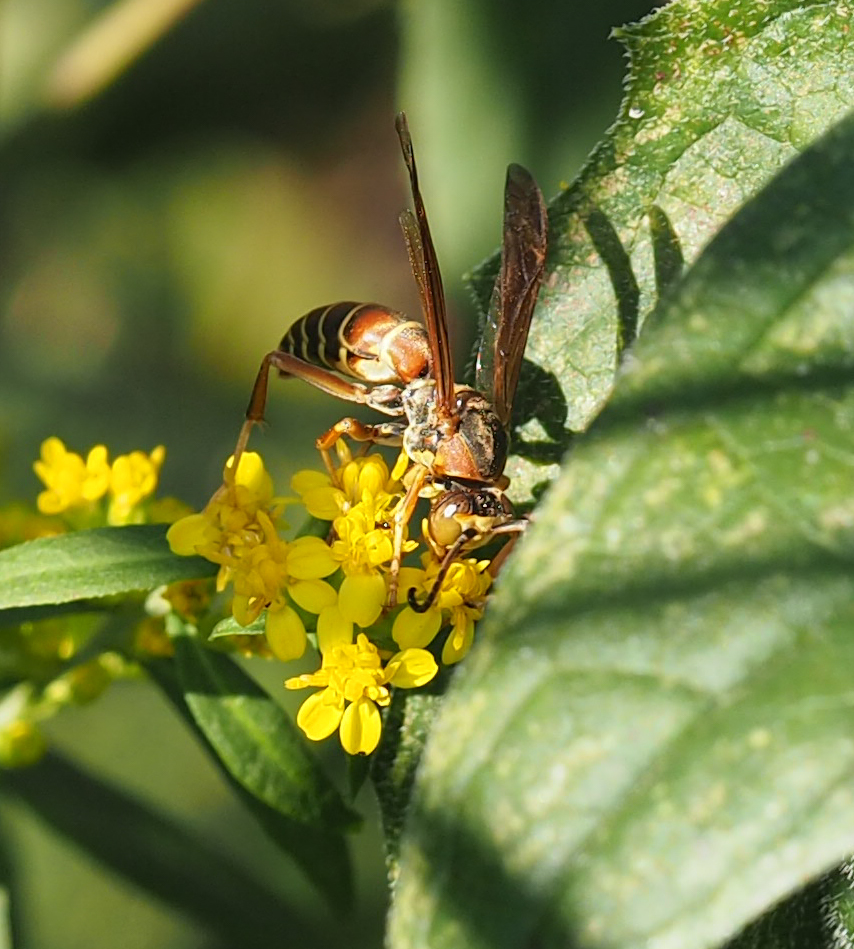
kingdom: Animalia
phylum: Arthropoda
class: Insecta
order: Hymenoptera
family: Eumenidae
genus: Polistes
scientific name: Polistes fuscatus
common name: Dark paper wasp
